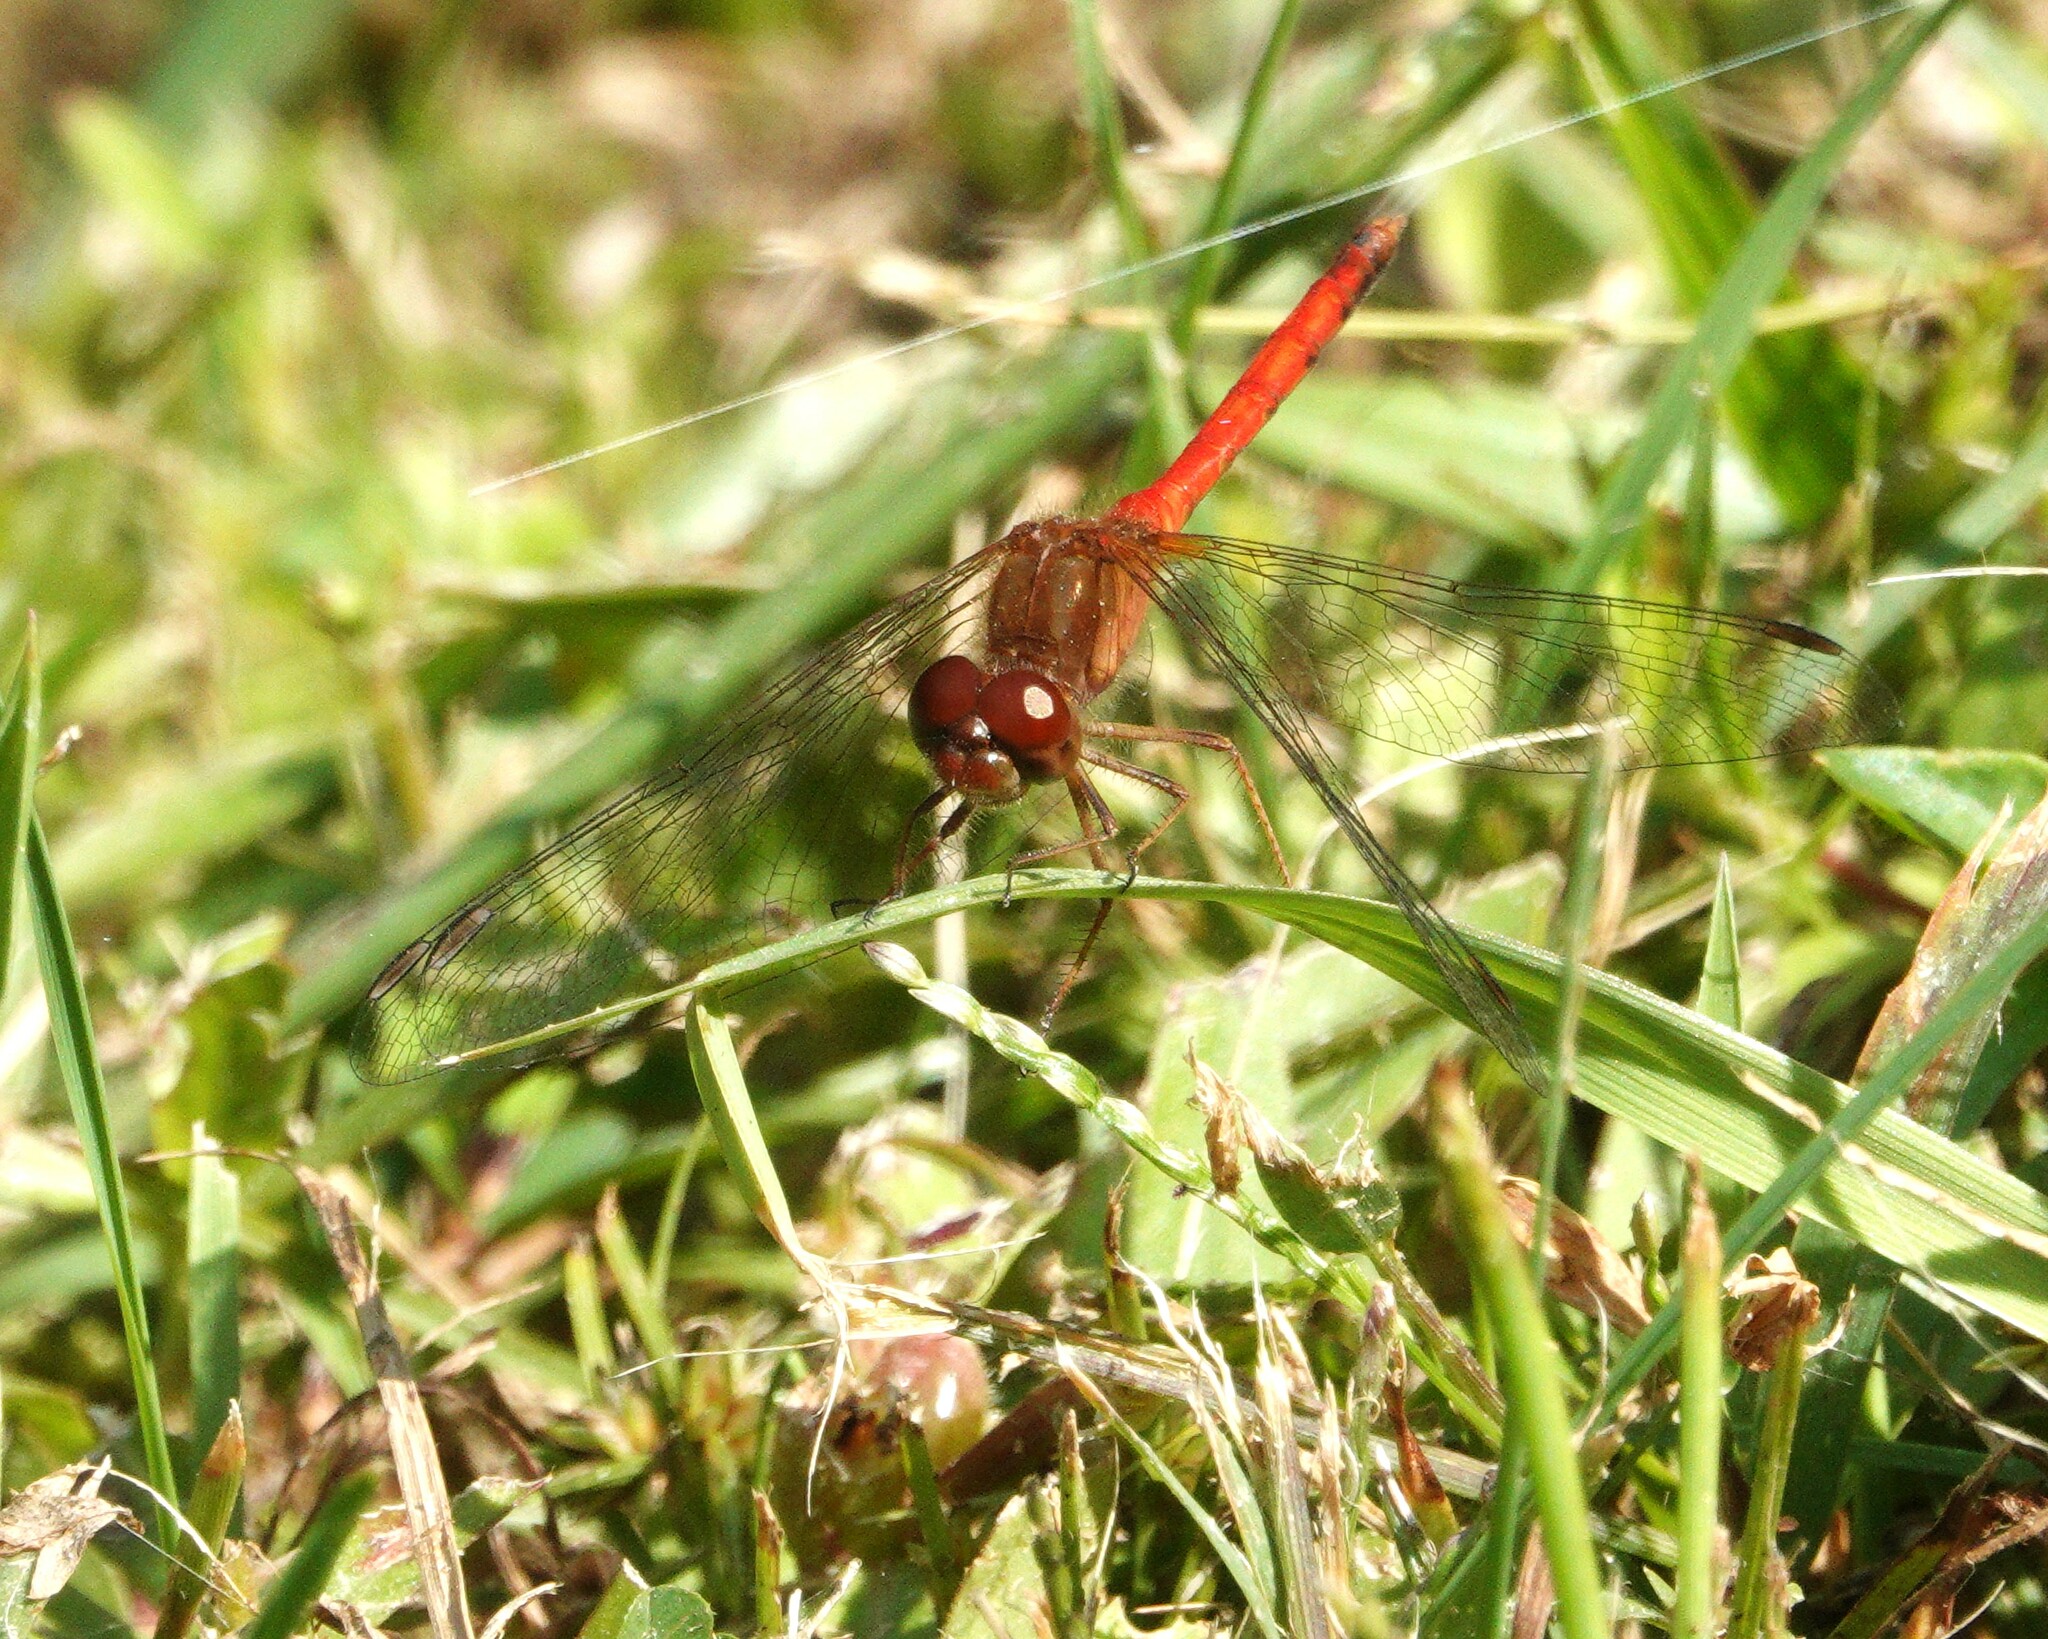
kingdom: Animalia
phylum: Arthropoda
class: Insecta
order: Odonata
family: Libellulidae
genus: Sympetrum
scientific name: Sympetrum vicinum
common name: Autumn meadowhawk
